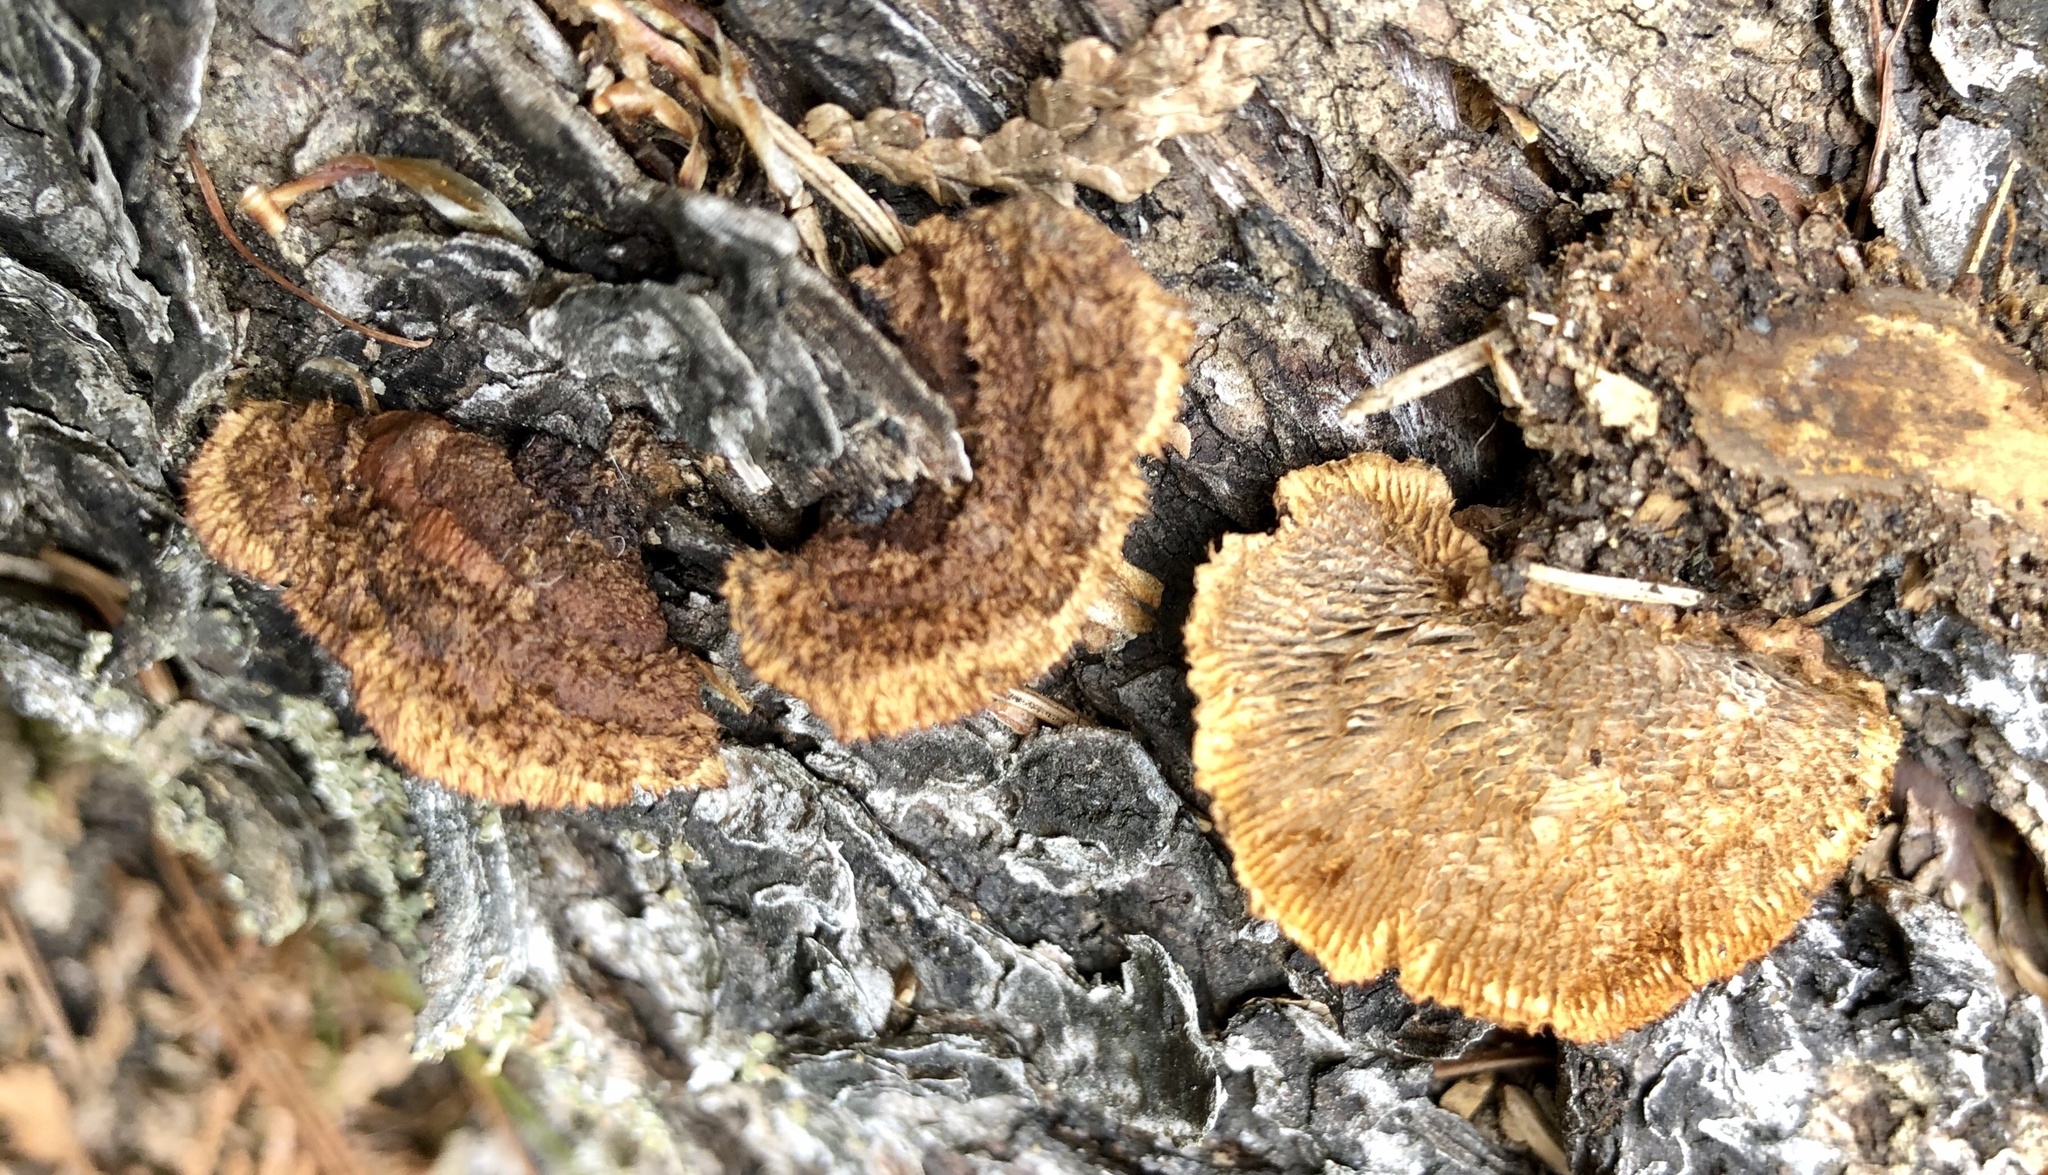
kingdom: Fungi
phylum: Basidiomycota
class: Agaricomycetes
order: Gloeophyllales
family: Gloeophyllaceae
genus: Gloeophyllum
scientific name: Gloeophyllum sepiarium
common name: Conifer mazegill
